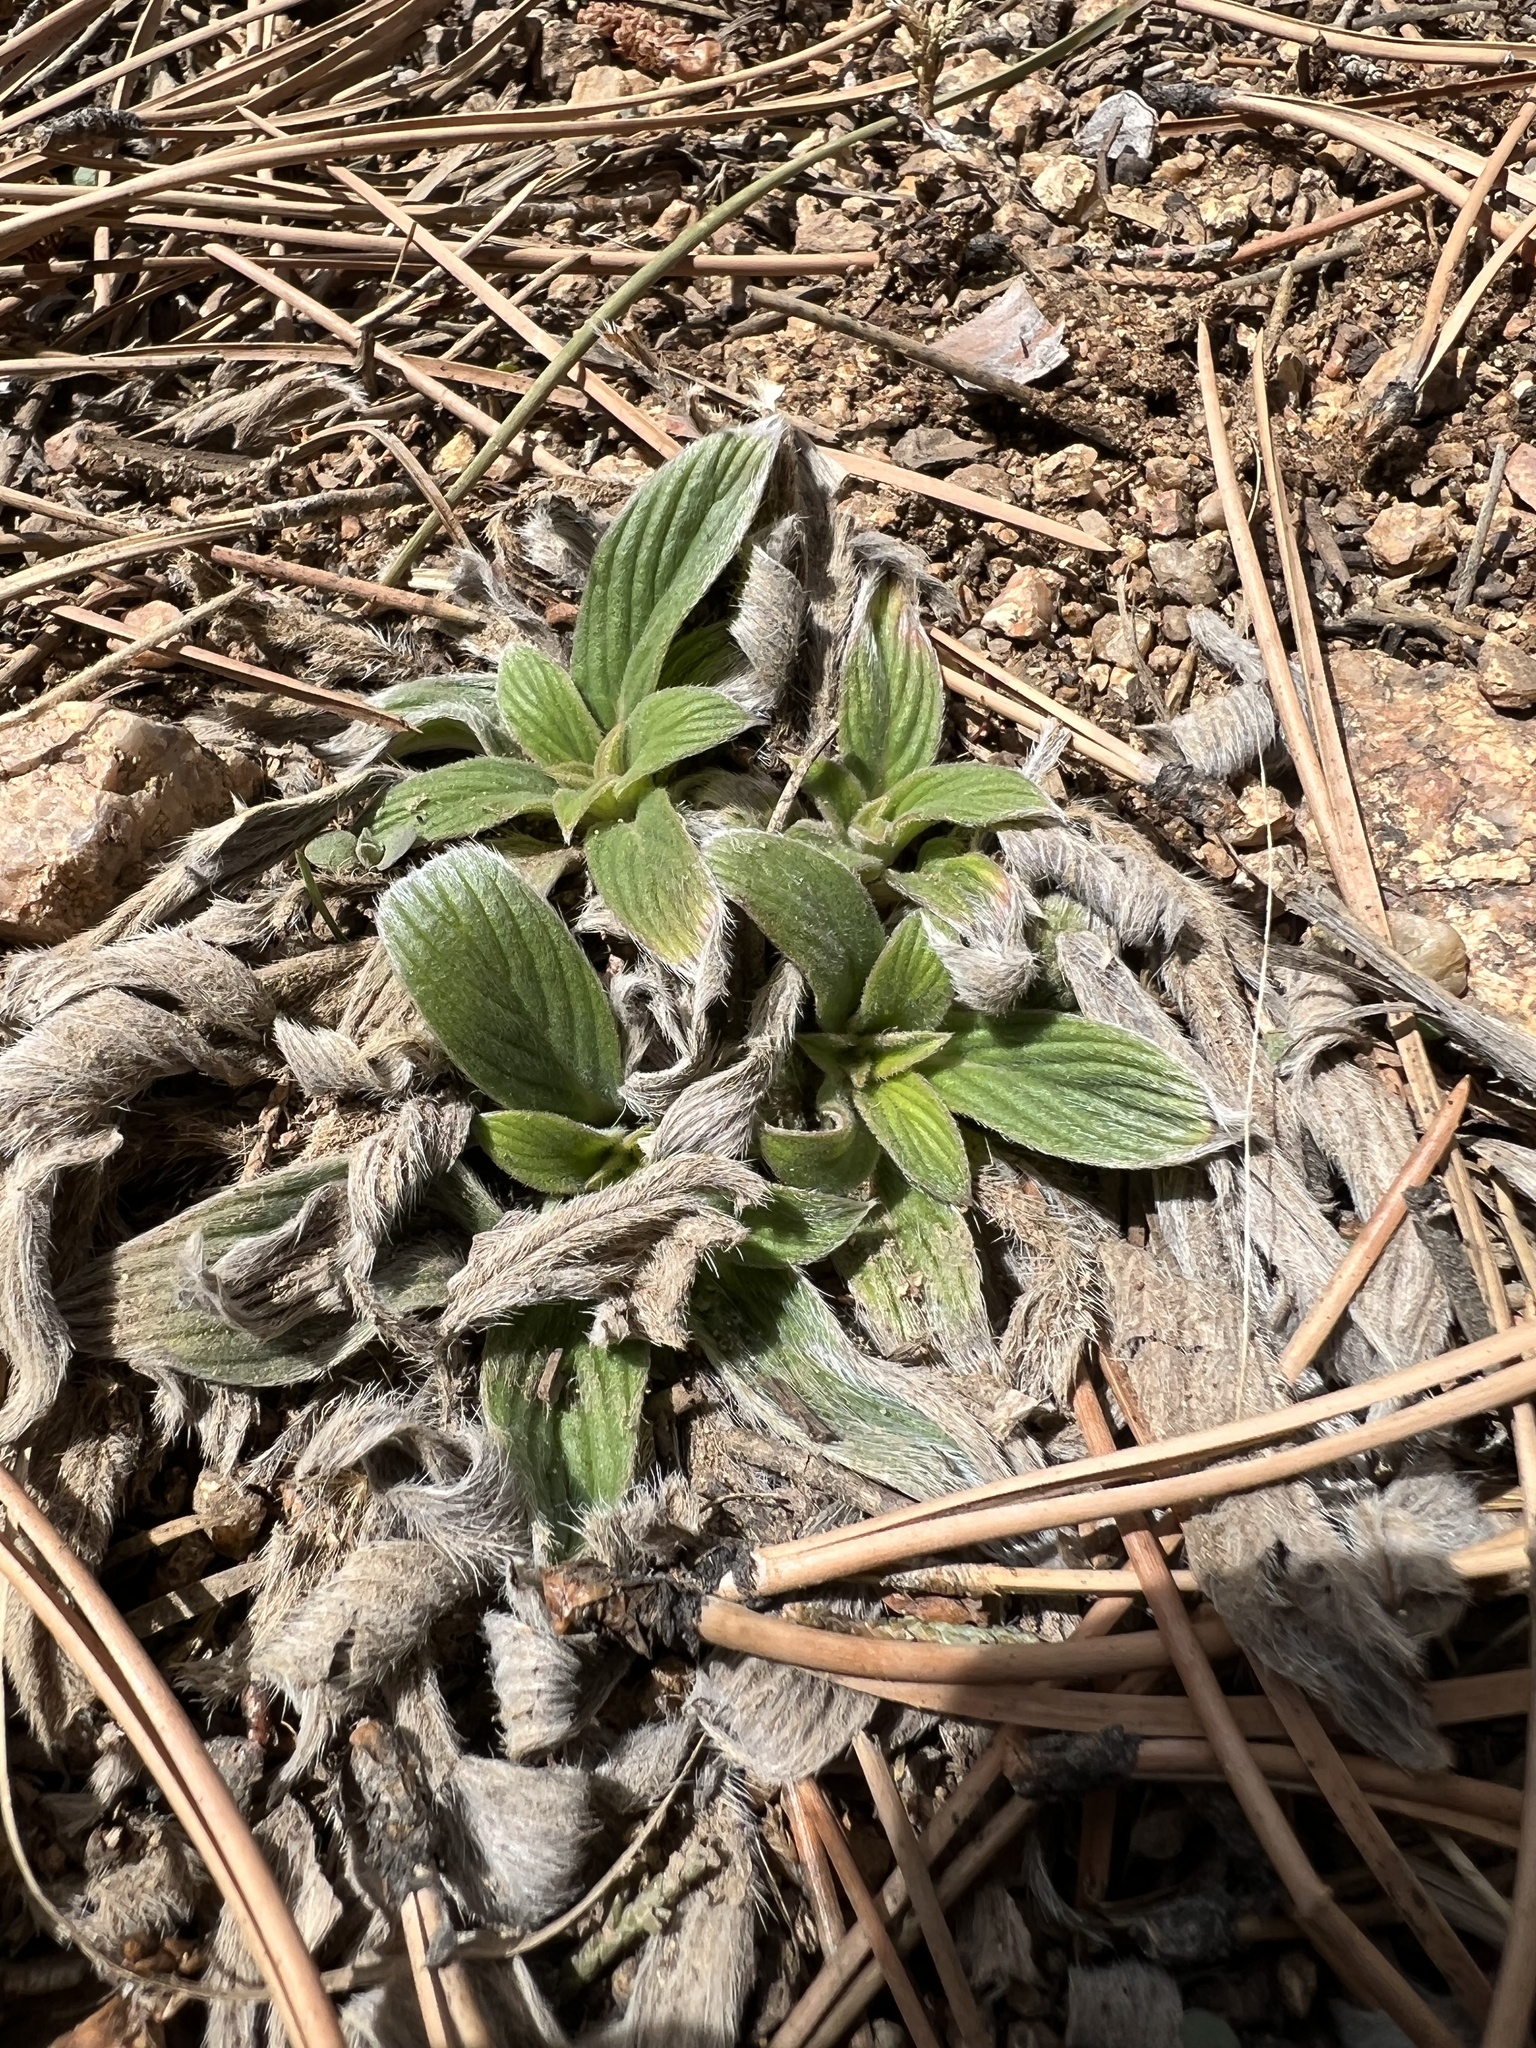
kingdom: Plantae
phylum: Tracheophyta
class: Magnoliopsida
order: Boraginales
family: Hydrophyllaceae
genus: Phacelia
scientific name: Phacelia hastata
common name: Silver-leaved phacelia
